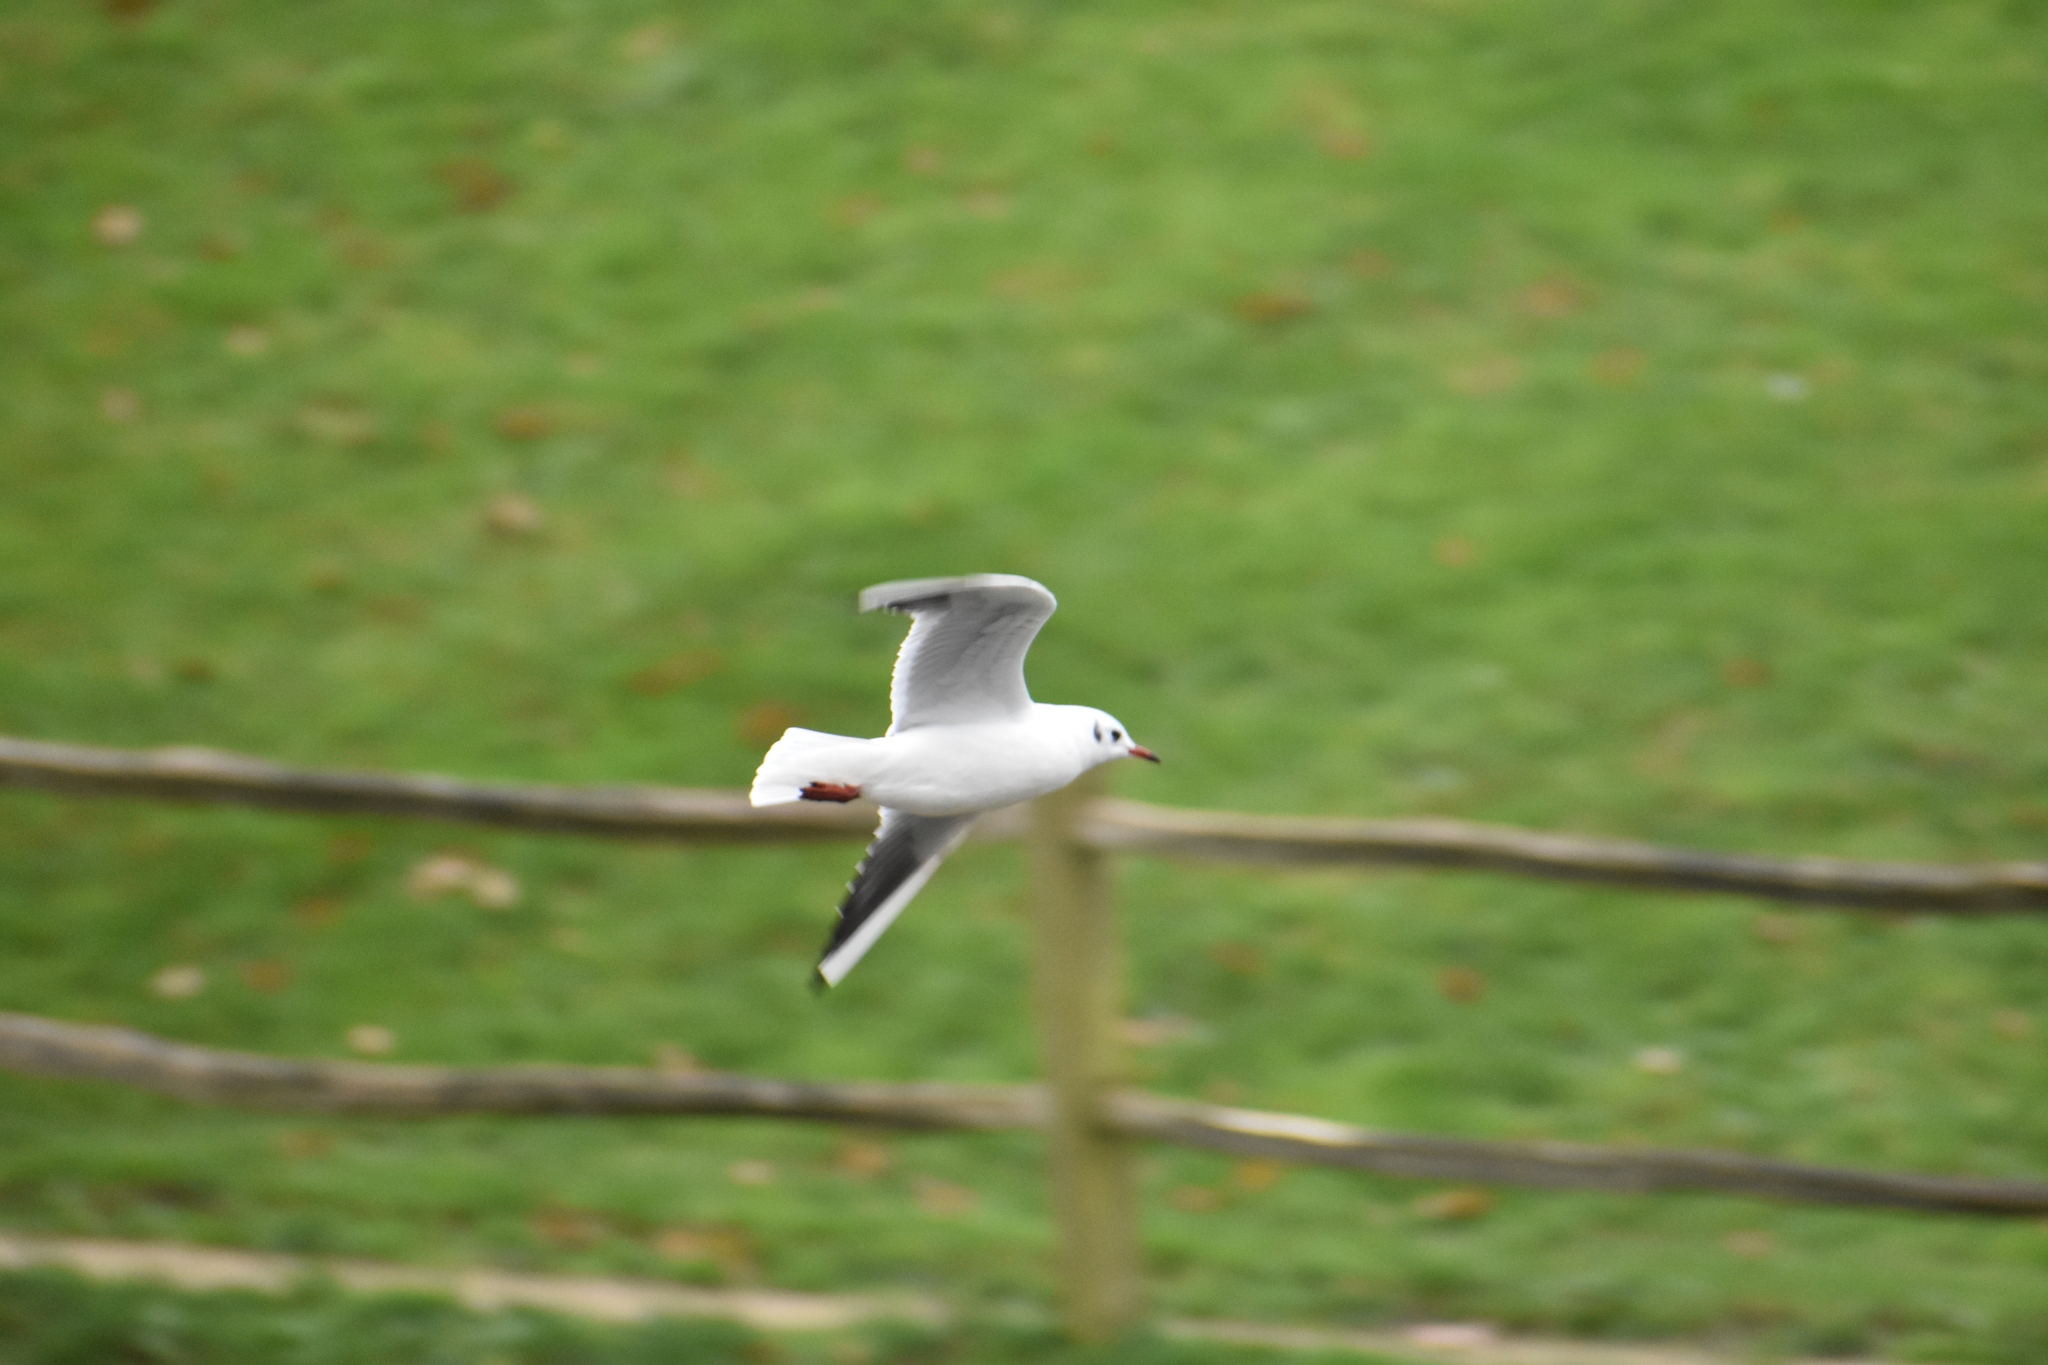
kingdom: Animalia
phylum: Chordata
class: Aves
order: Charadriiformes
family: Laridae
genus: Chroicocephalus
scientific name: Chroicocephalus ridibundus
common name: Black-headed gull
